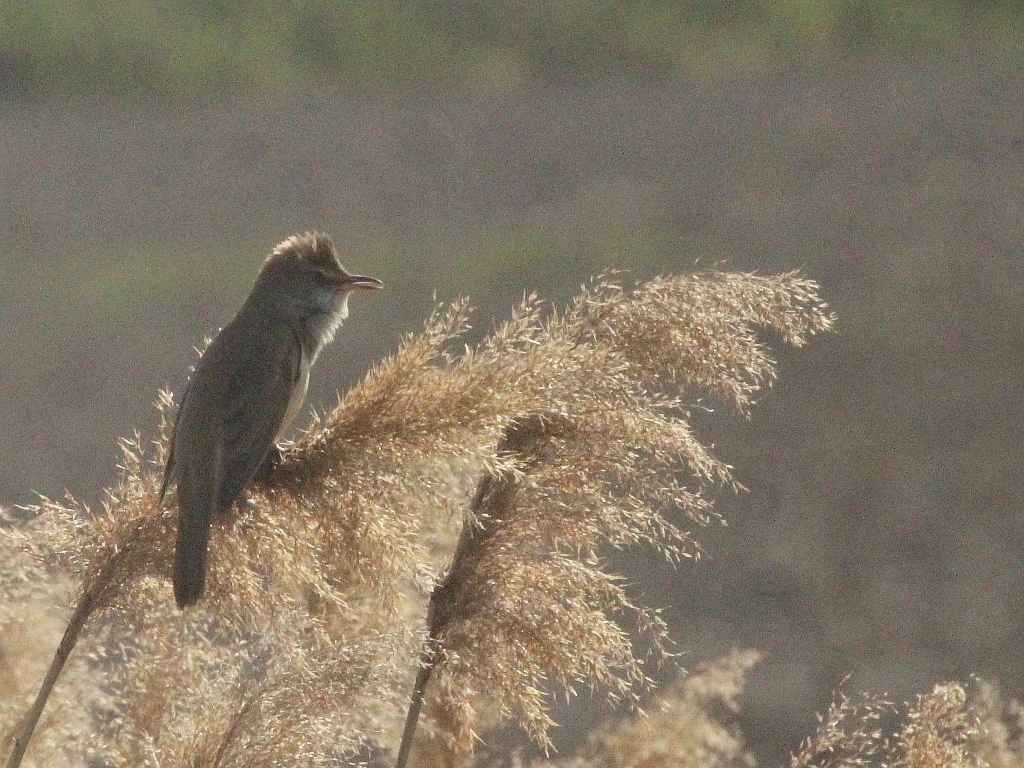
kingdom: Animalia
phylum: Chordata
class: Aves
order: Passeriformes
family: Acrocephalidae
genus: Acrocephalus
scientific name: Acrocephalus arundinaceus
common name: Great reed warbler
